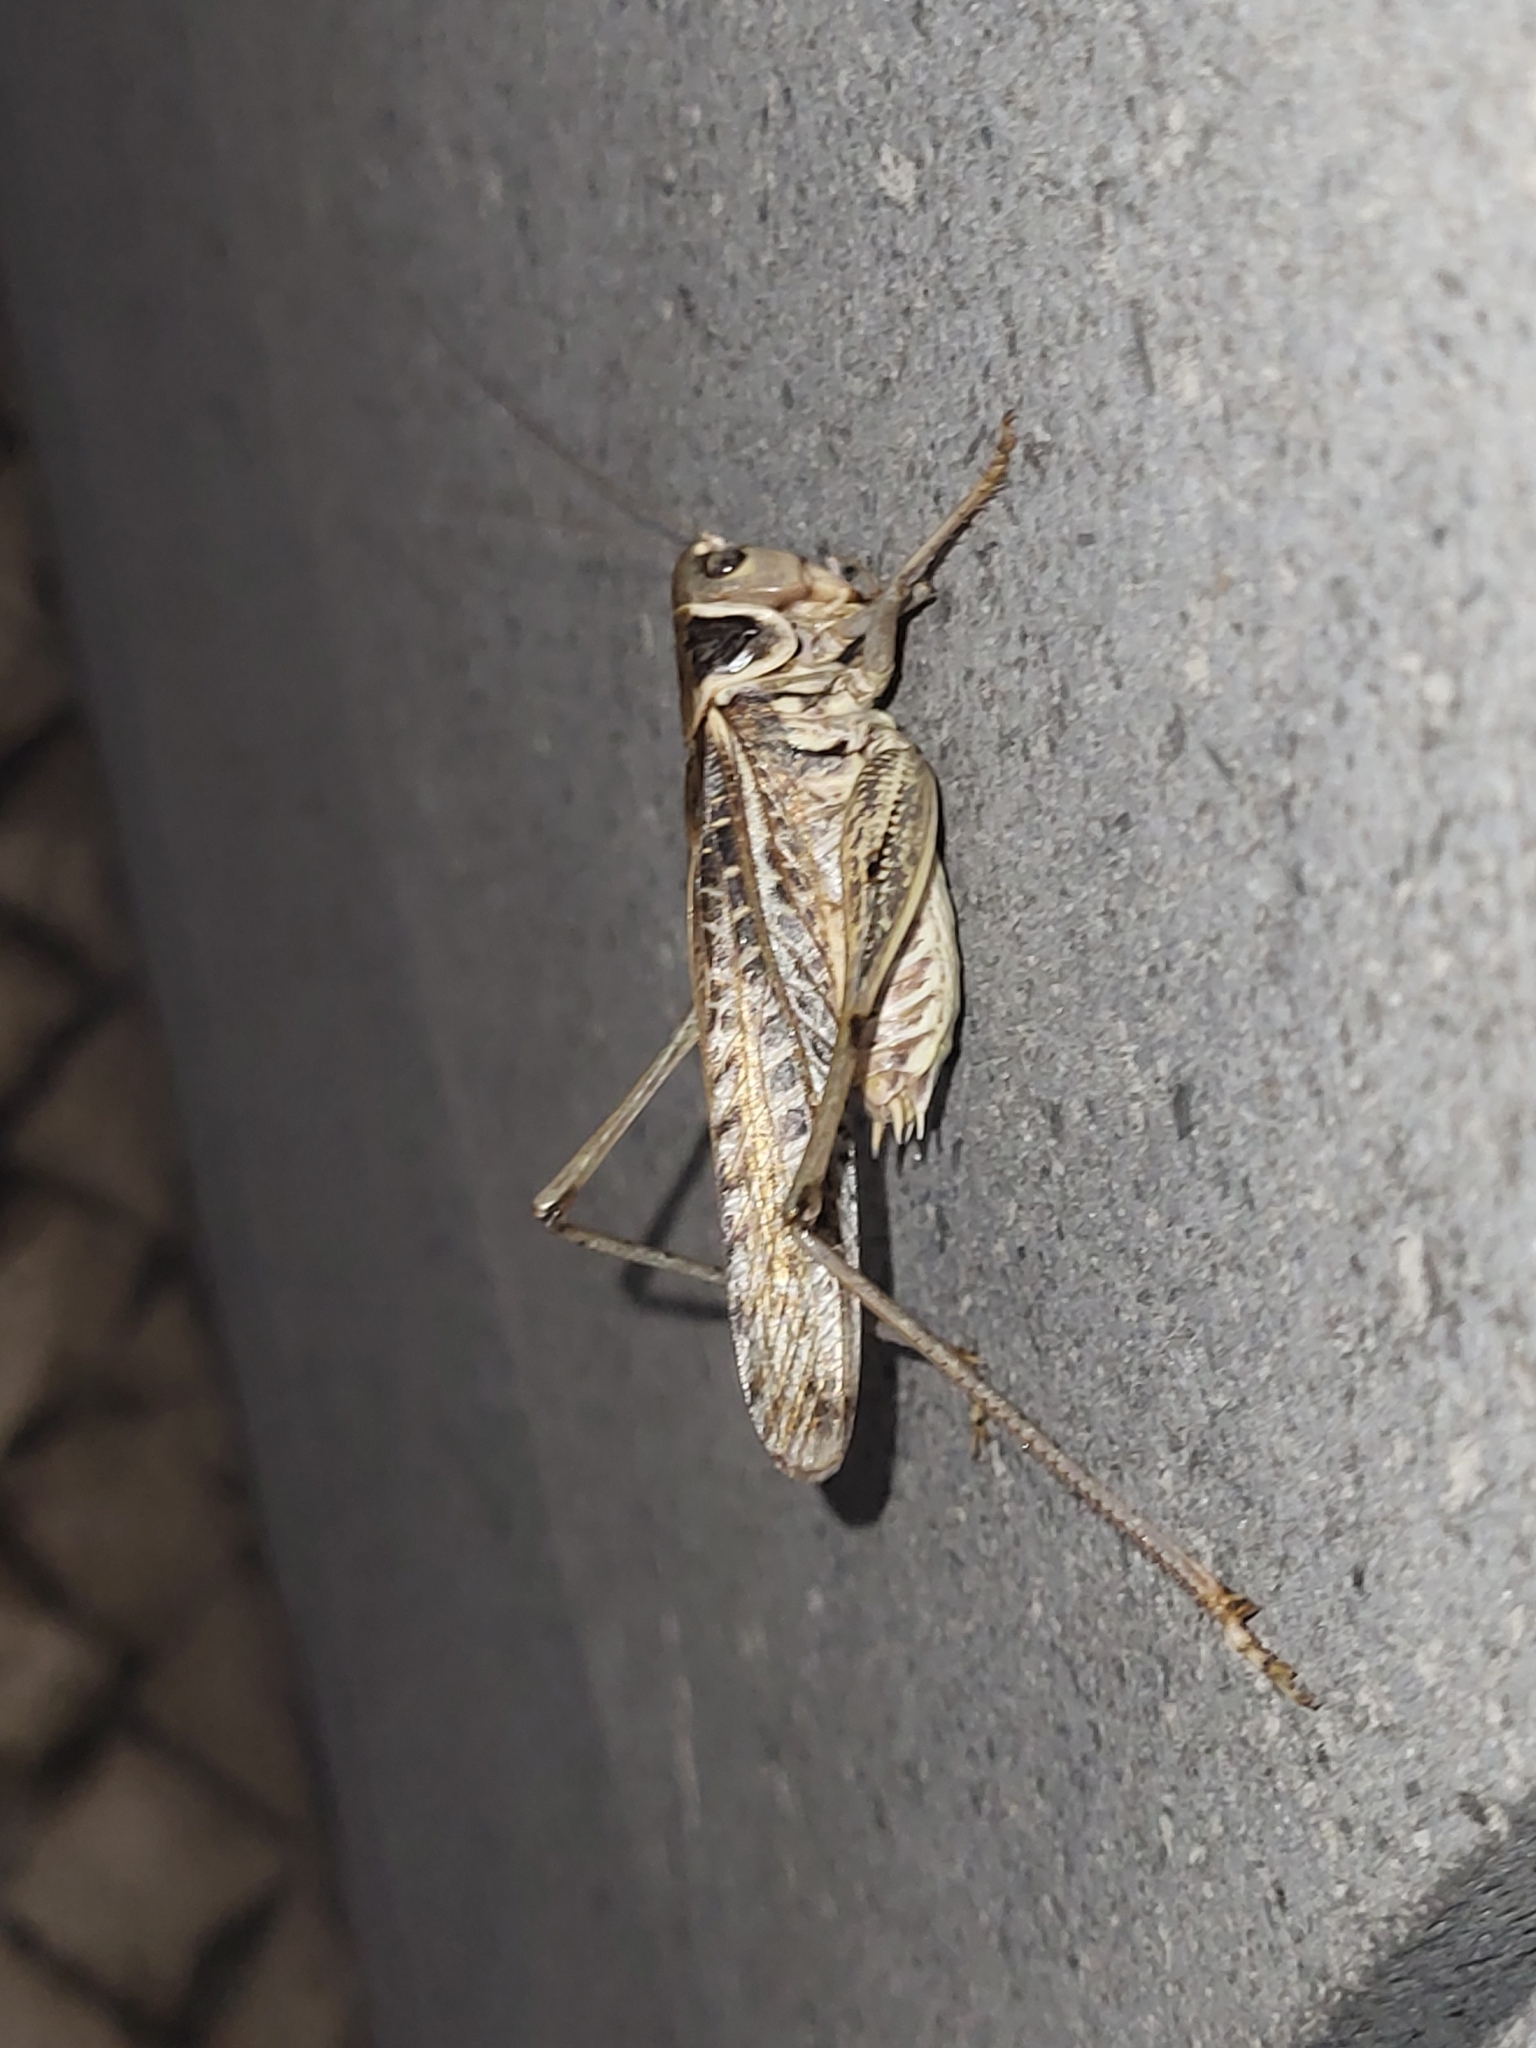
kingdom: Animalia
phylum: Arthropoda
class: Insecta
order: Orthoptera
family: Tettigoniidae
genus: Decticus
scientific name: Decticus albifrons
